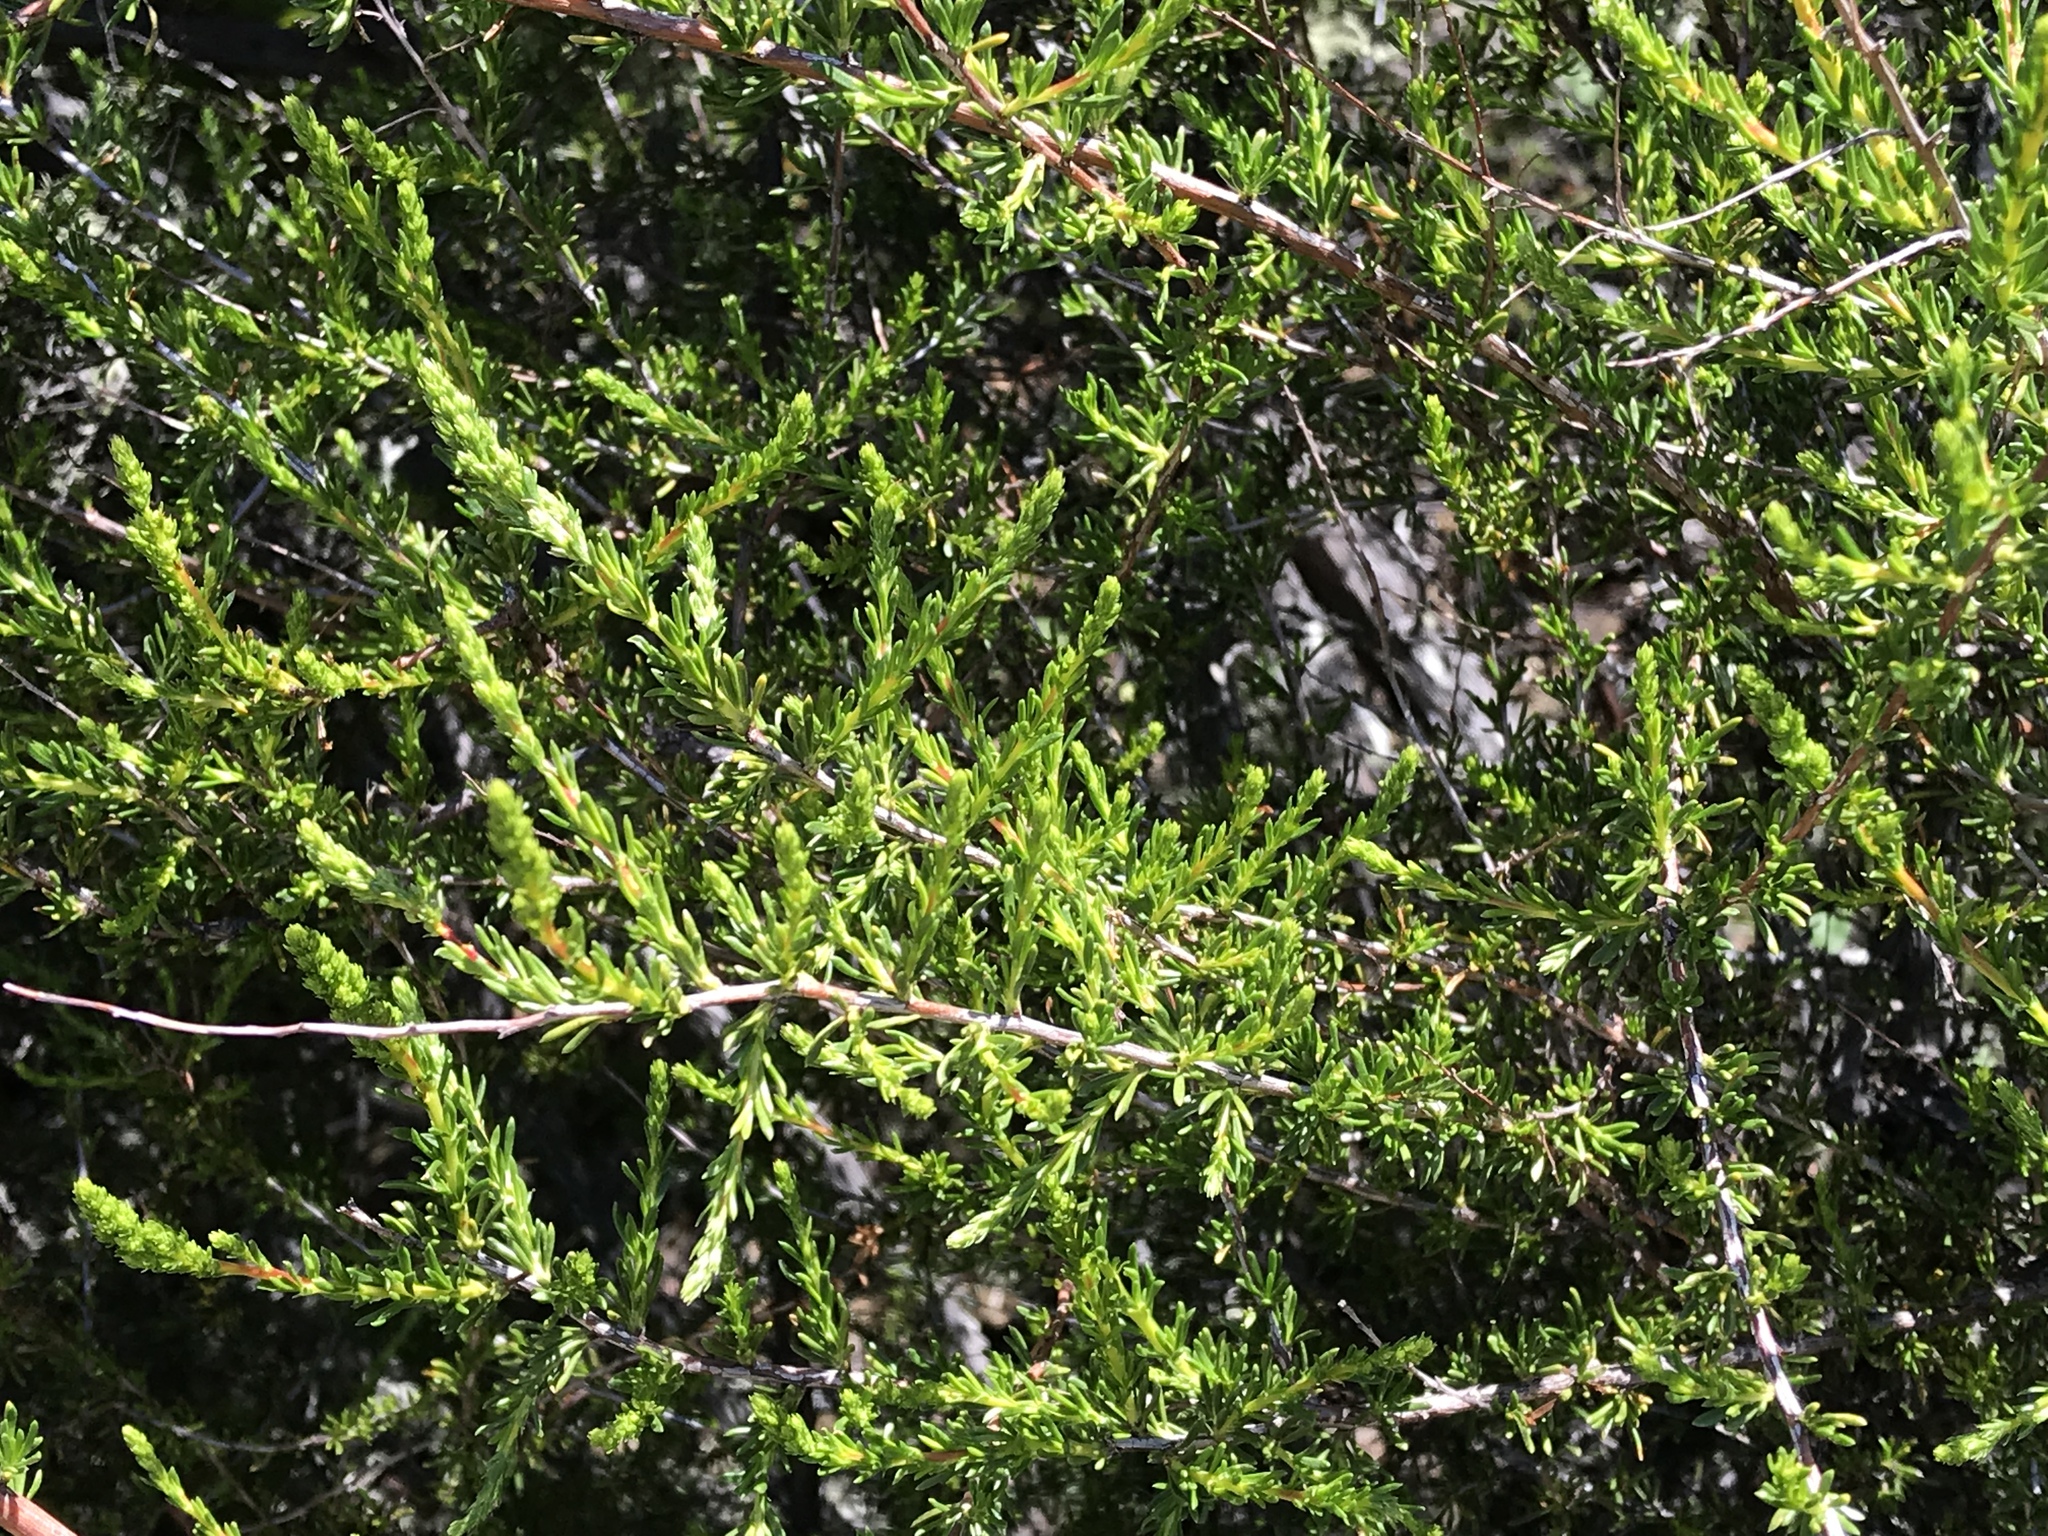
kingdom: Plantae
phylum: Tracheophyta
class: Magnoliopsida
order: Rosales
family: Rosaceae
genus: Adenostoma
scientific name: Adenostoma fasciculatum
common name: Chamise
